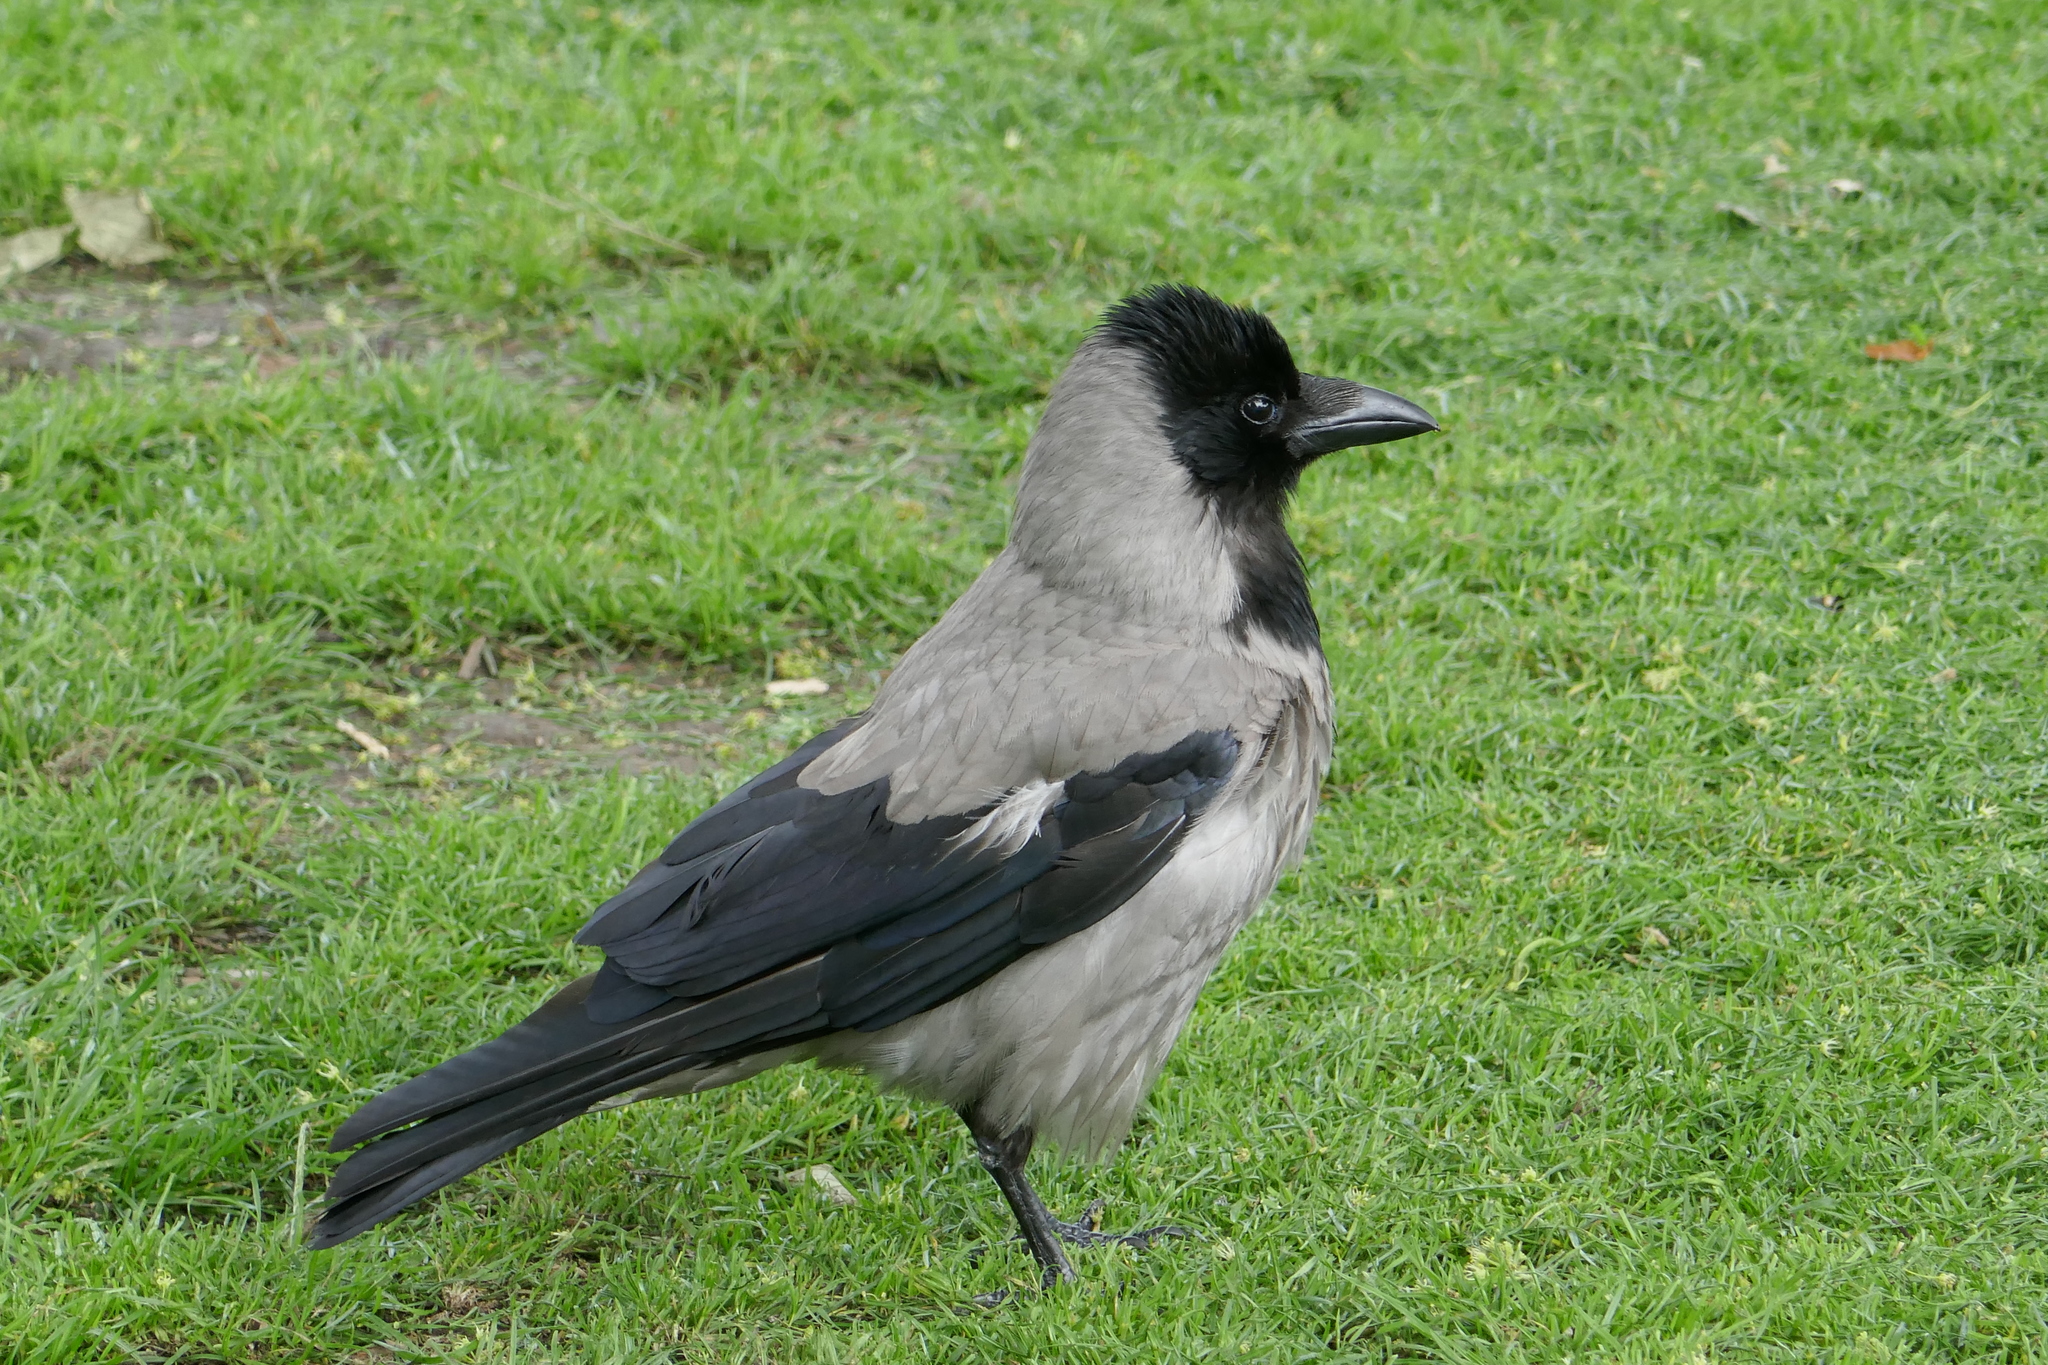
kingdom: Animalia
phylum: Chordata
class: Aves
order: Passeriformes
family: Corvidae
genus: Corvus
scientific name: Corvus cornix
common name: Hooded crow
